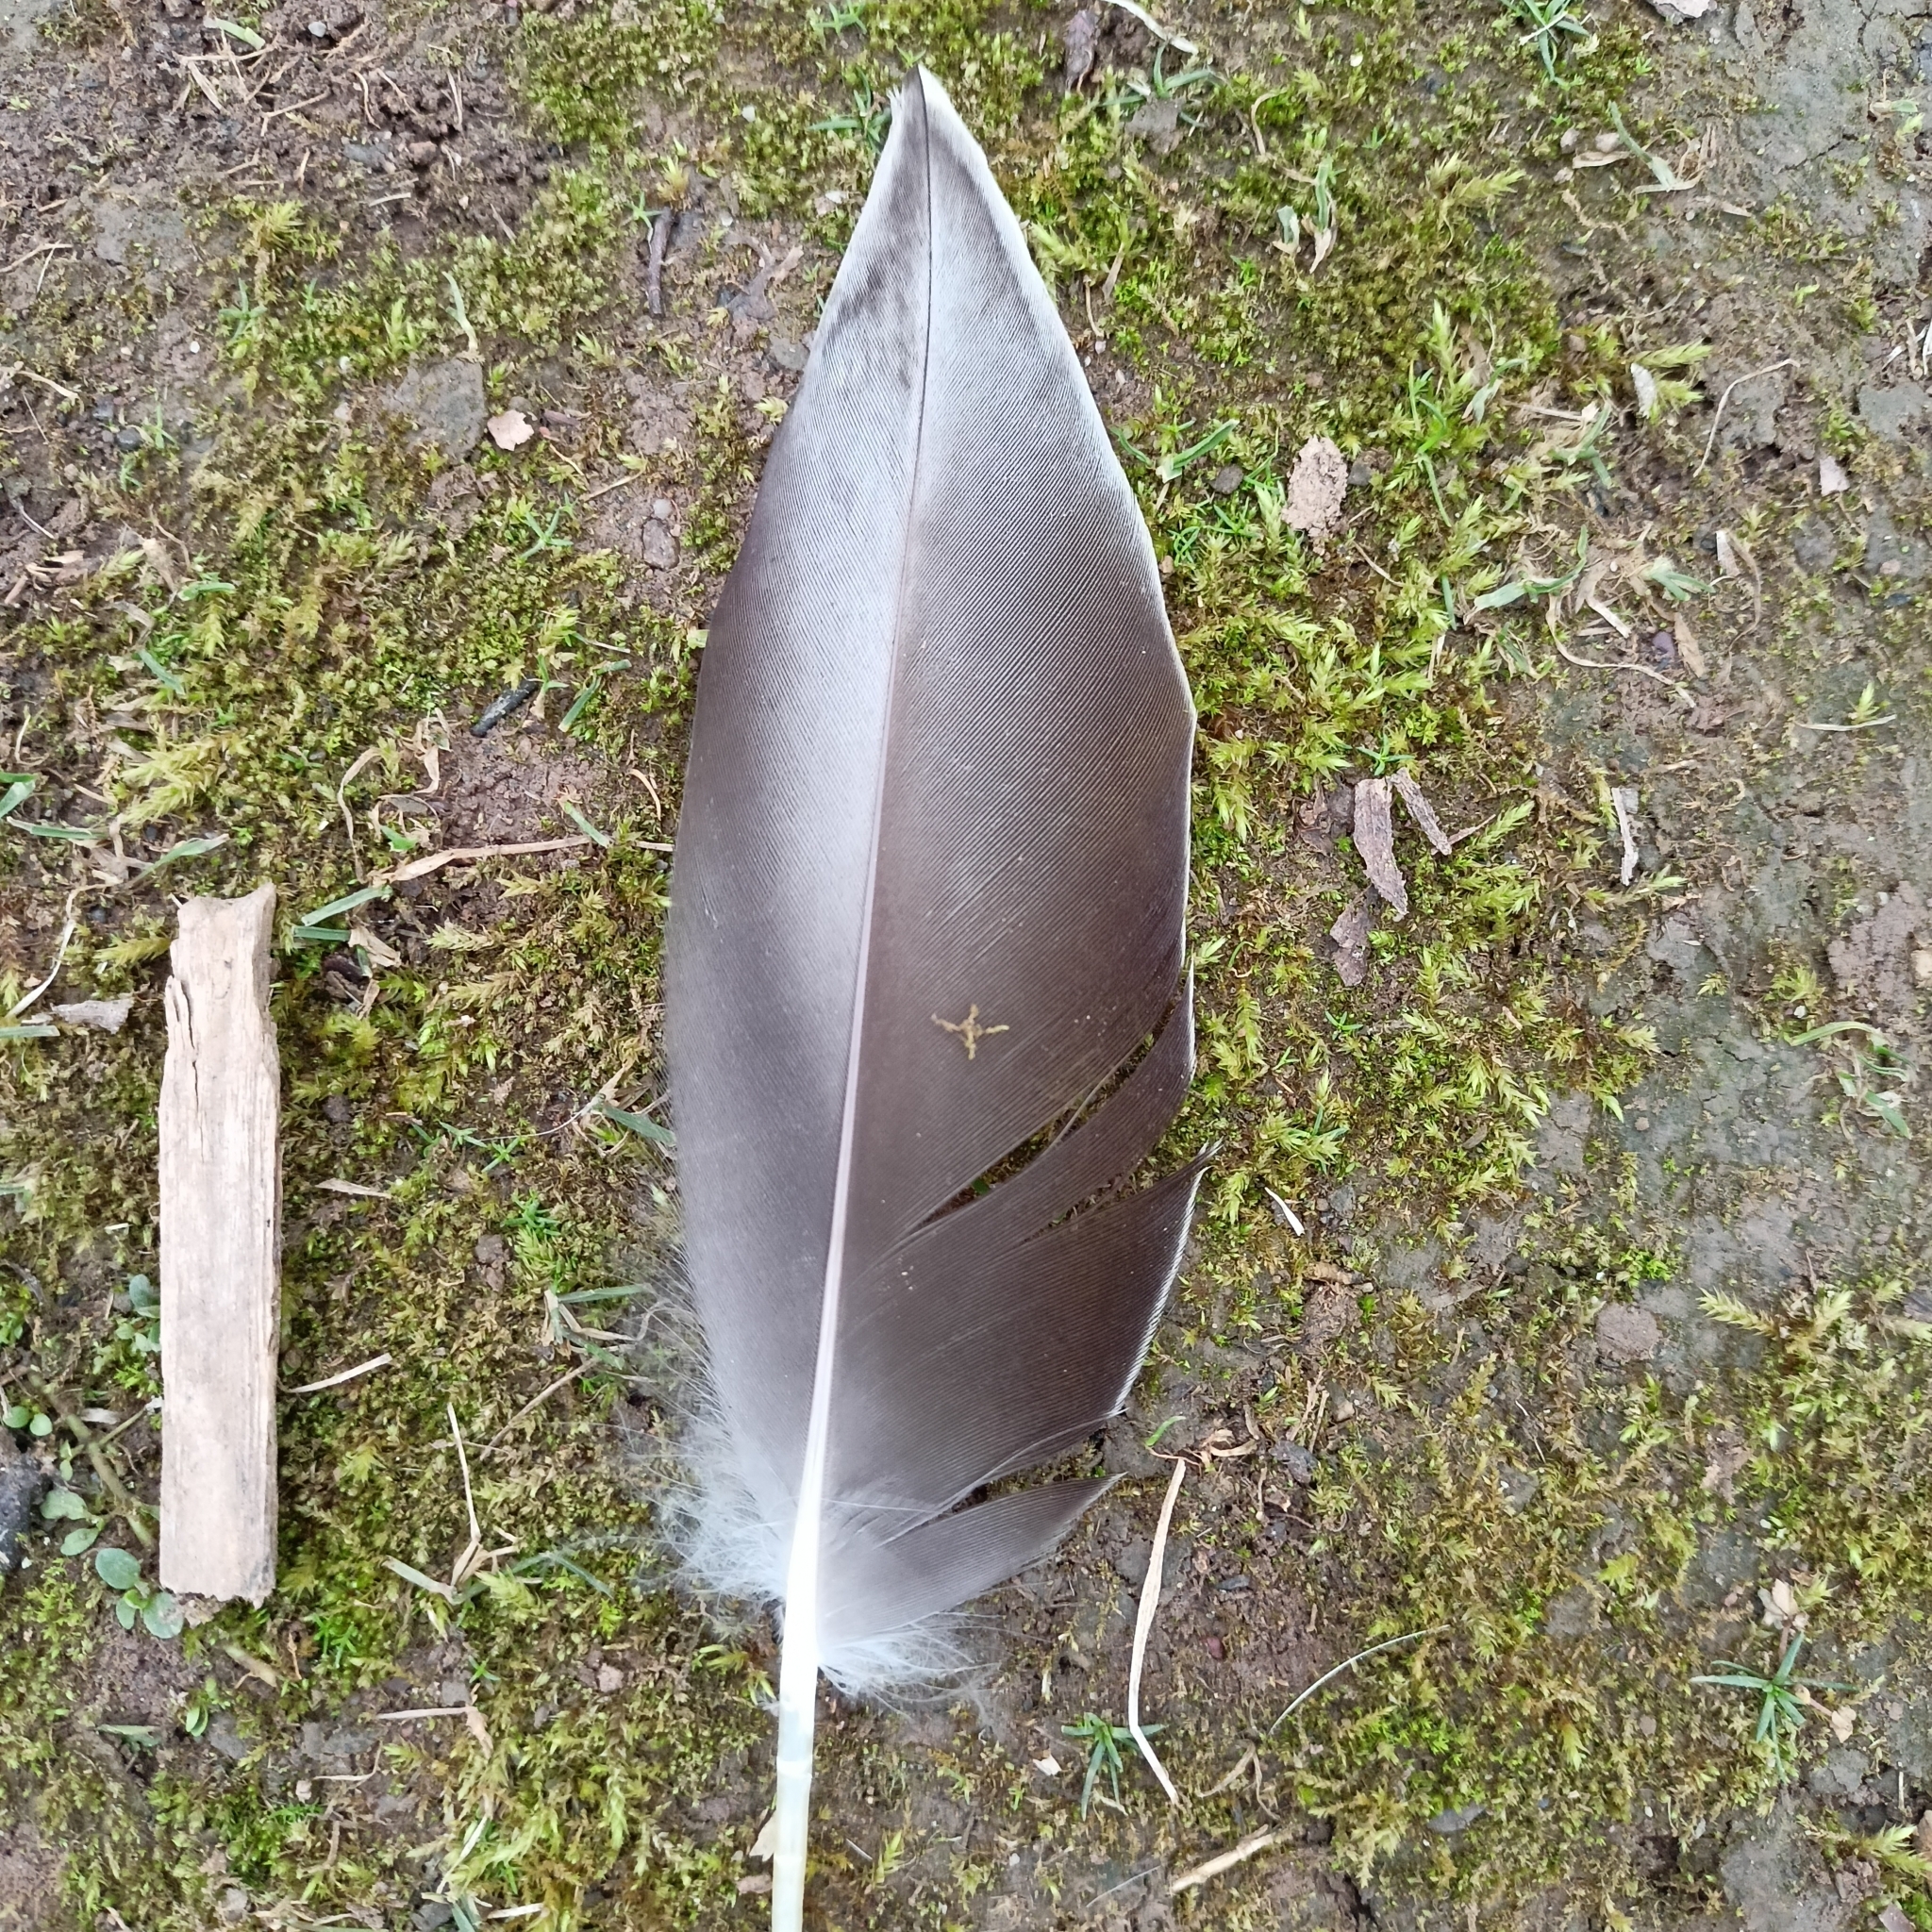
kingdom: Animalia
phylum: Chordata
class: Aves
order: Anseriformes
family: Anatidae
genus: Anas
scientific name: Anas platyrhynchos
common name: Mallard
